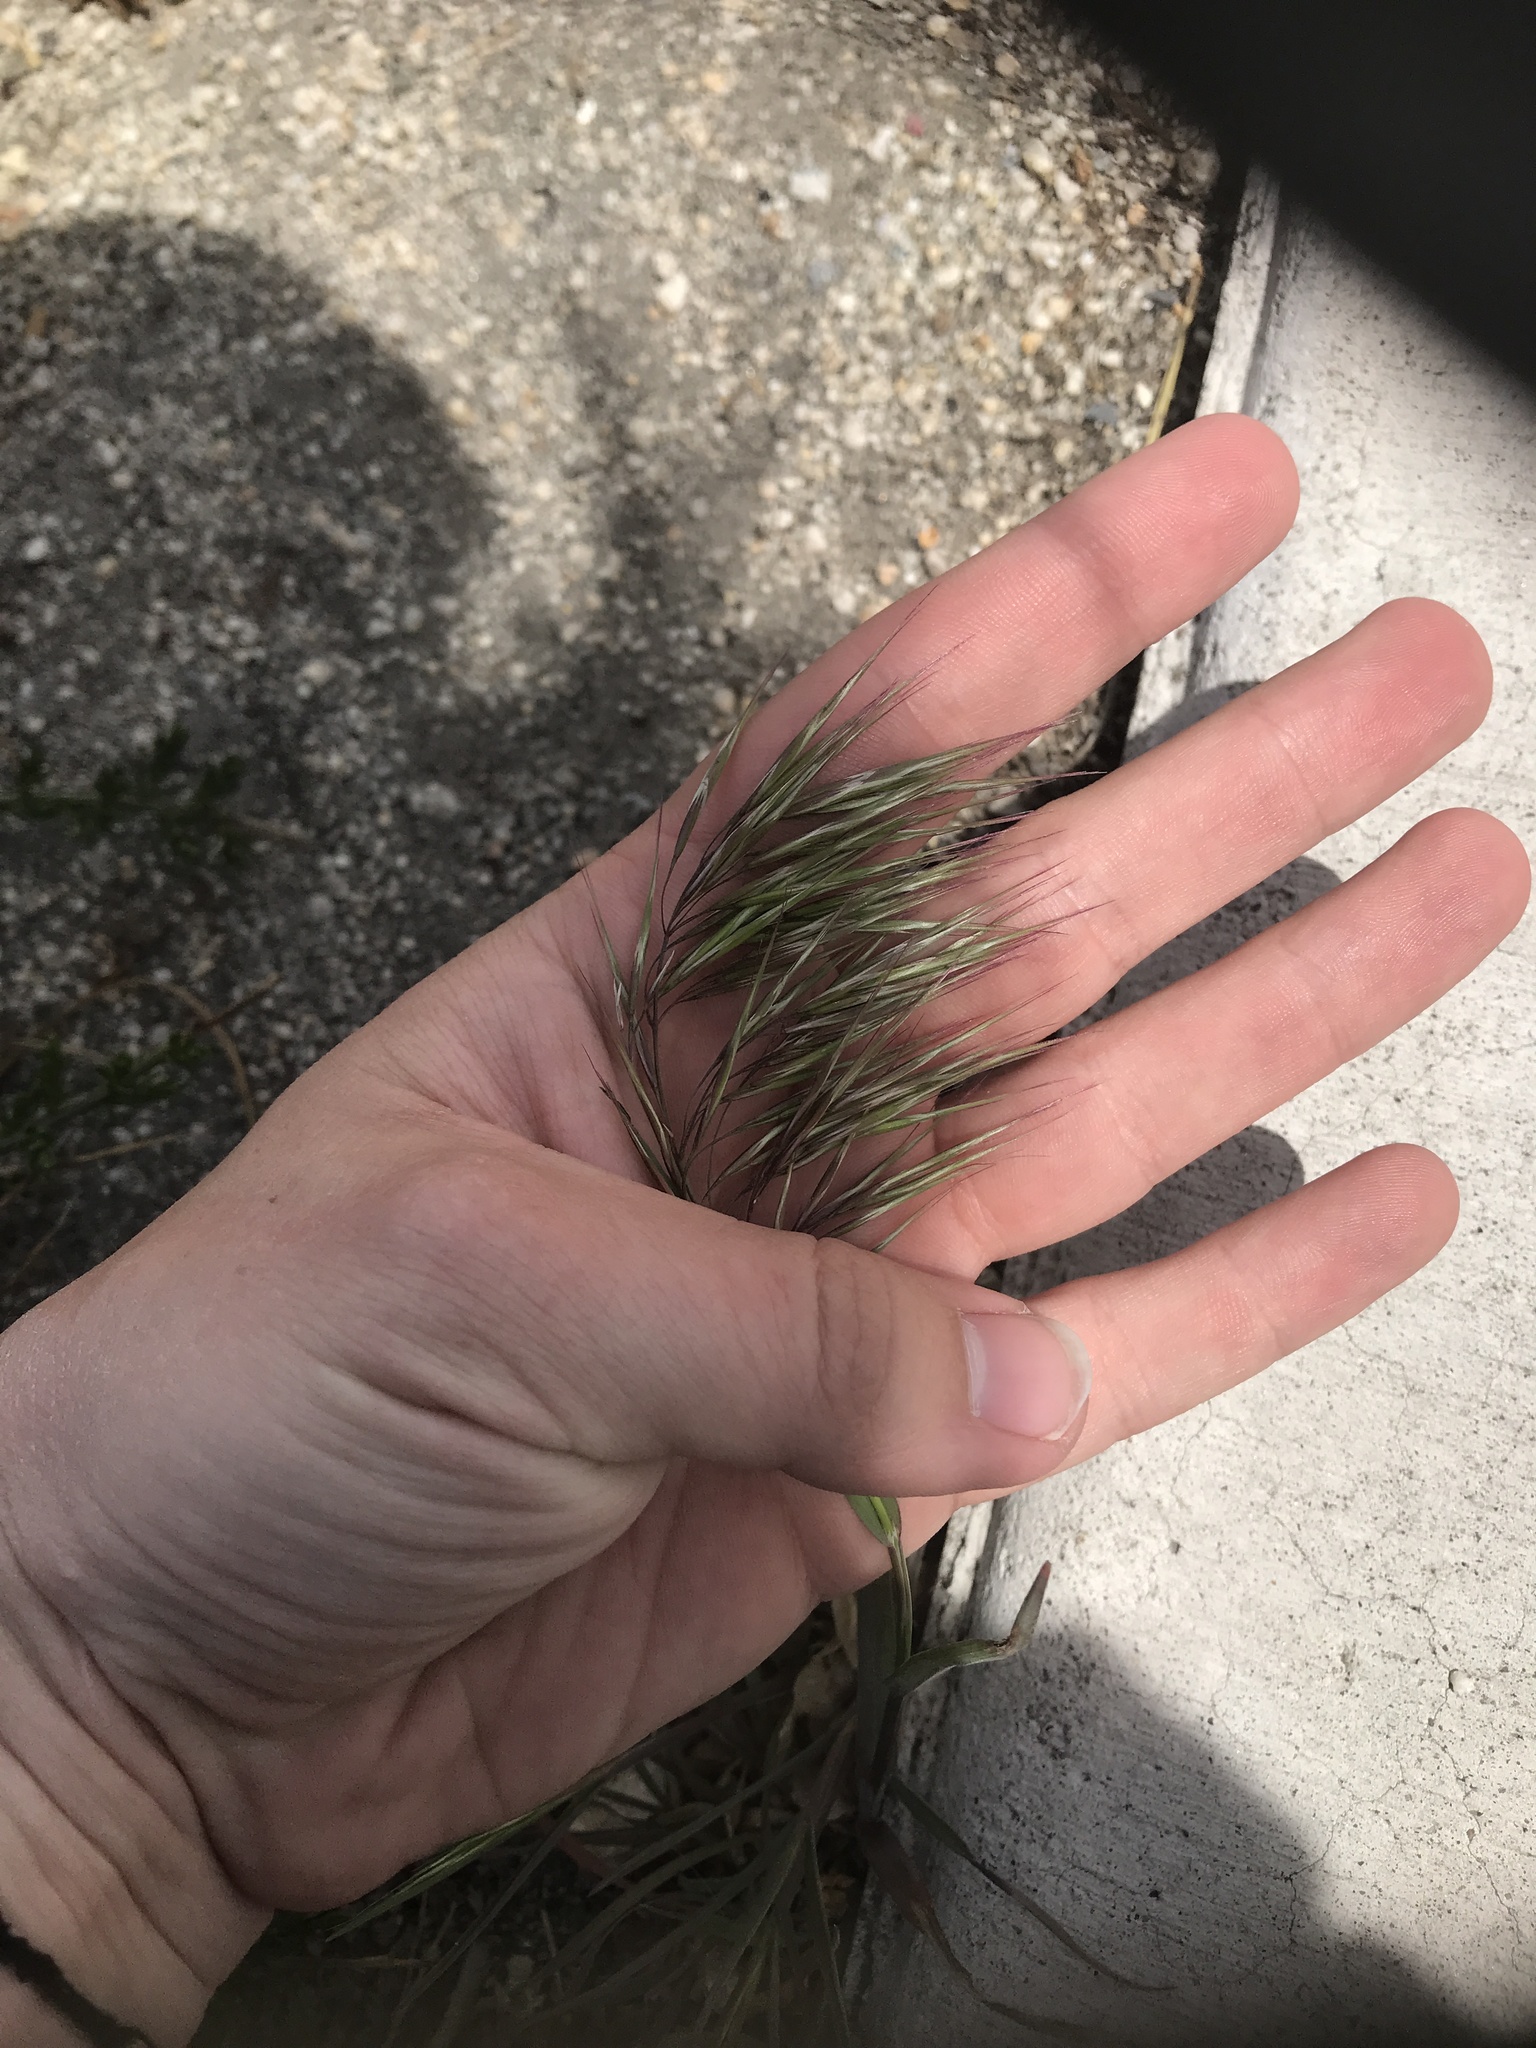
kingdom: Plantae
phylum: Tracheophyta
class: Liliopsida
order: Poales
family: Poaceae
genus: Bromus
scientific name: Bromus tectorum
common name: Cheatgrass
